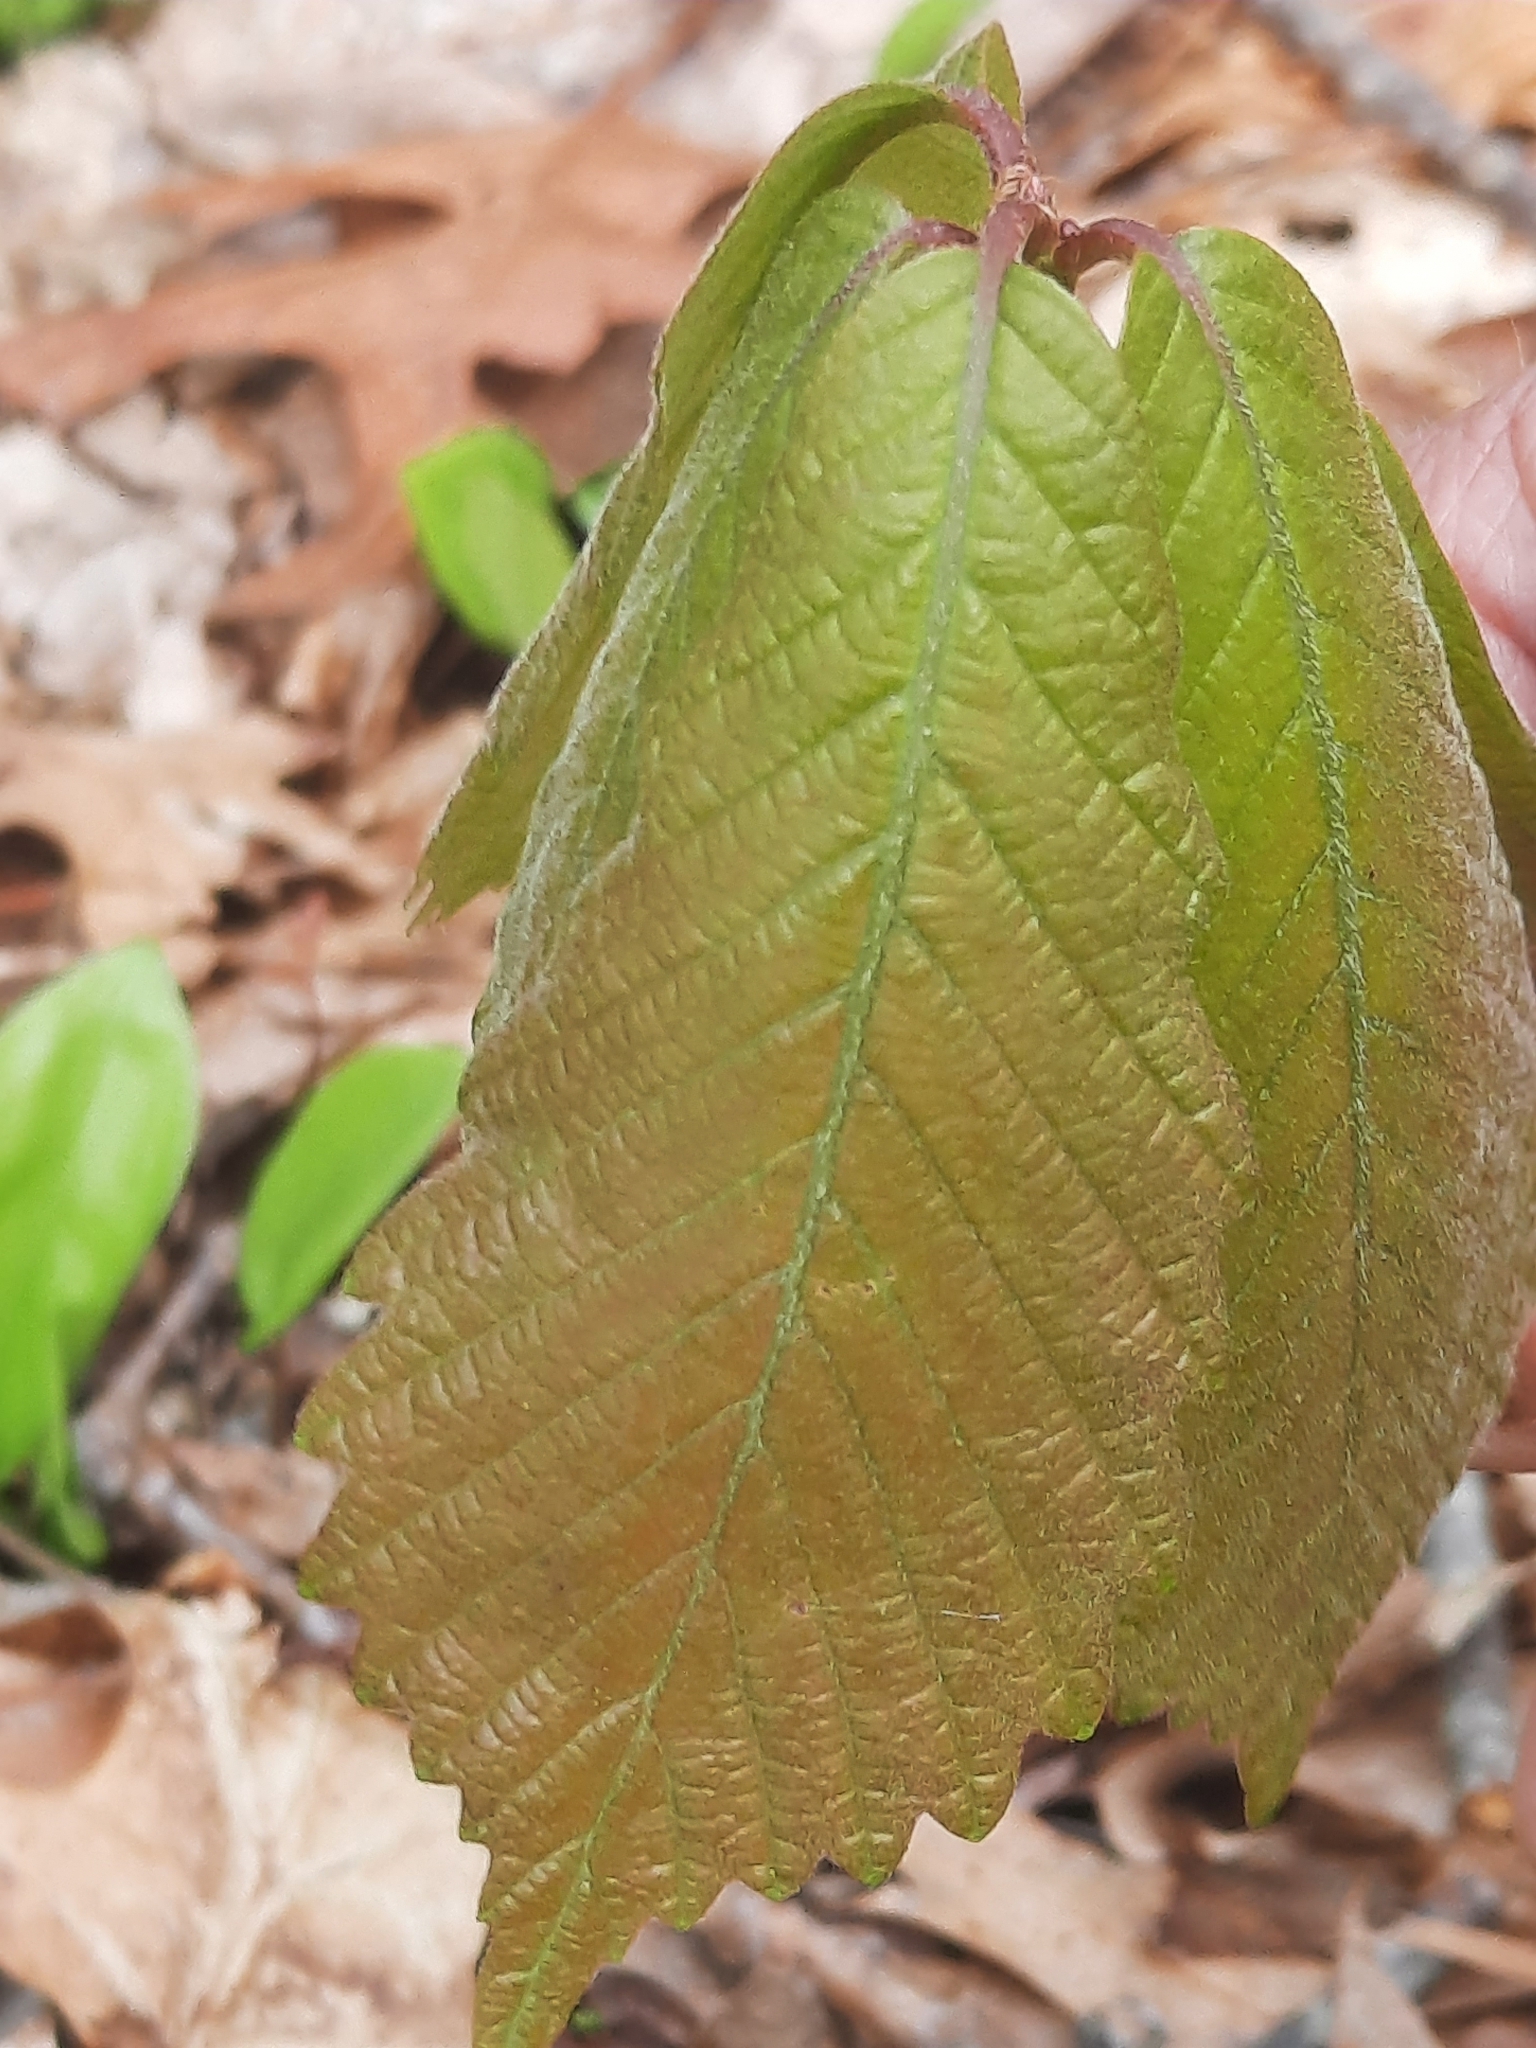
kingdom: Plantae
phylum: Tracheophyta
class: Magnoliopsida
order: Fagales
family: Fagaceae
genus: Quercus
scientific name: Quercus montana
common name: Chestnut oak
